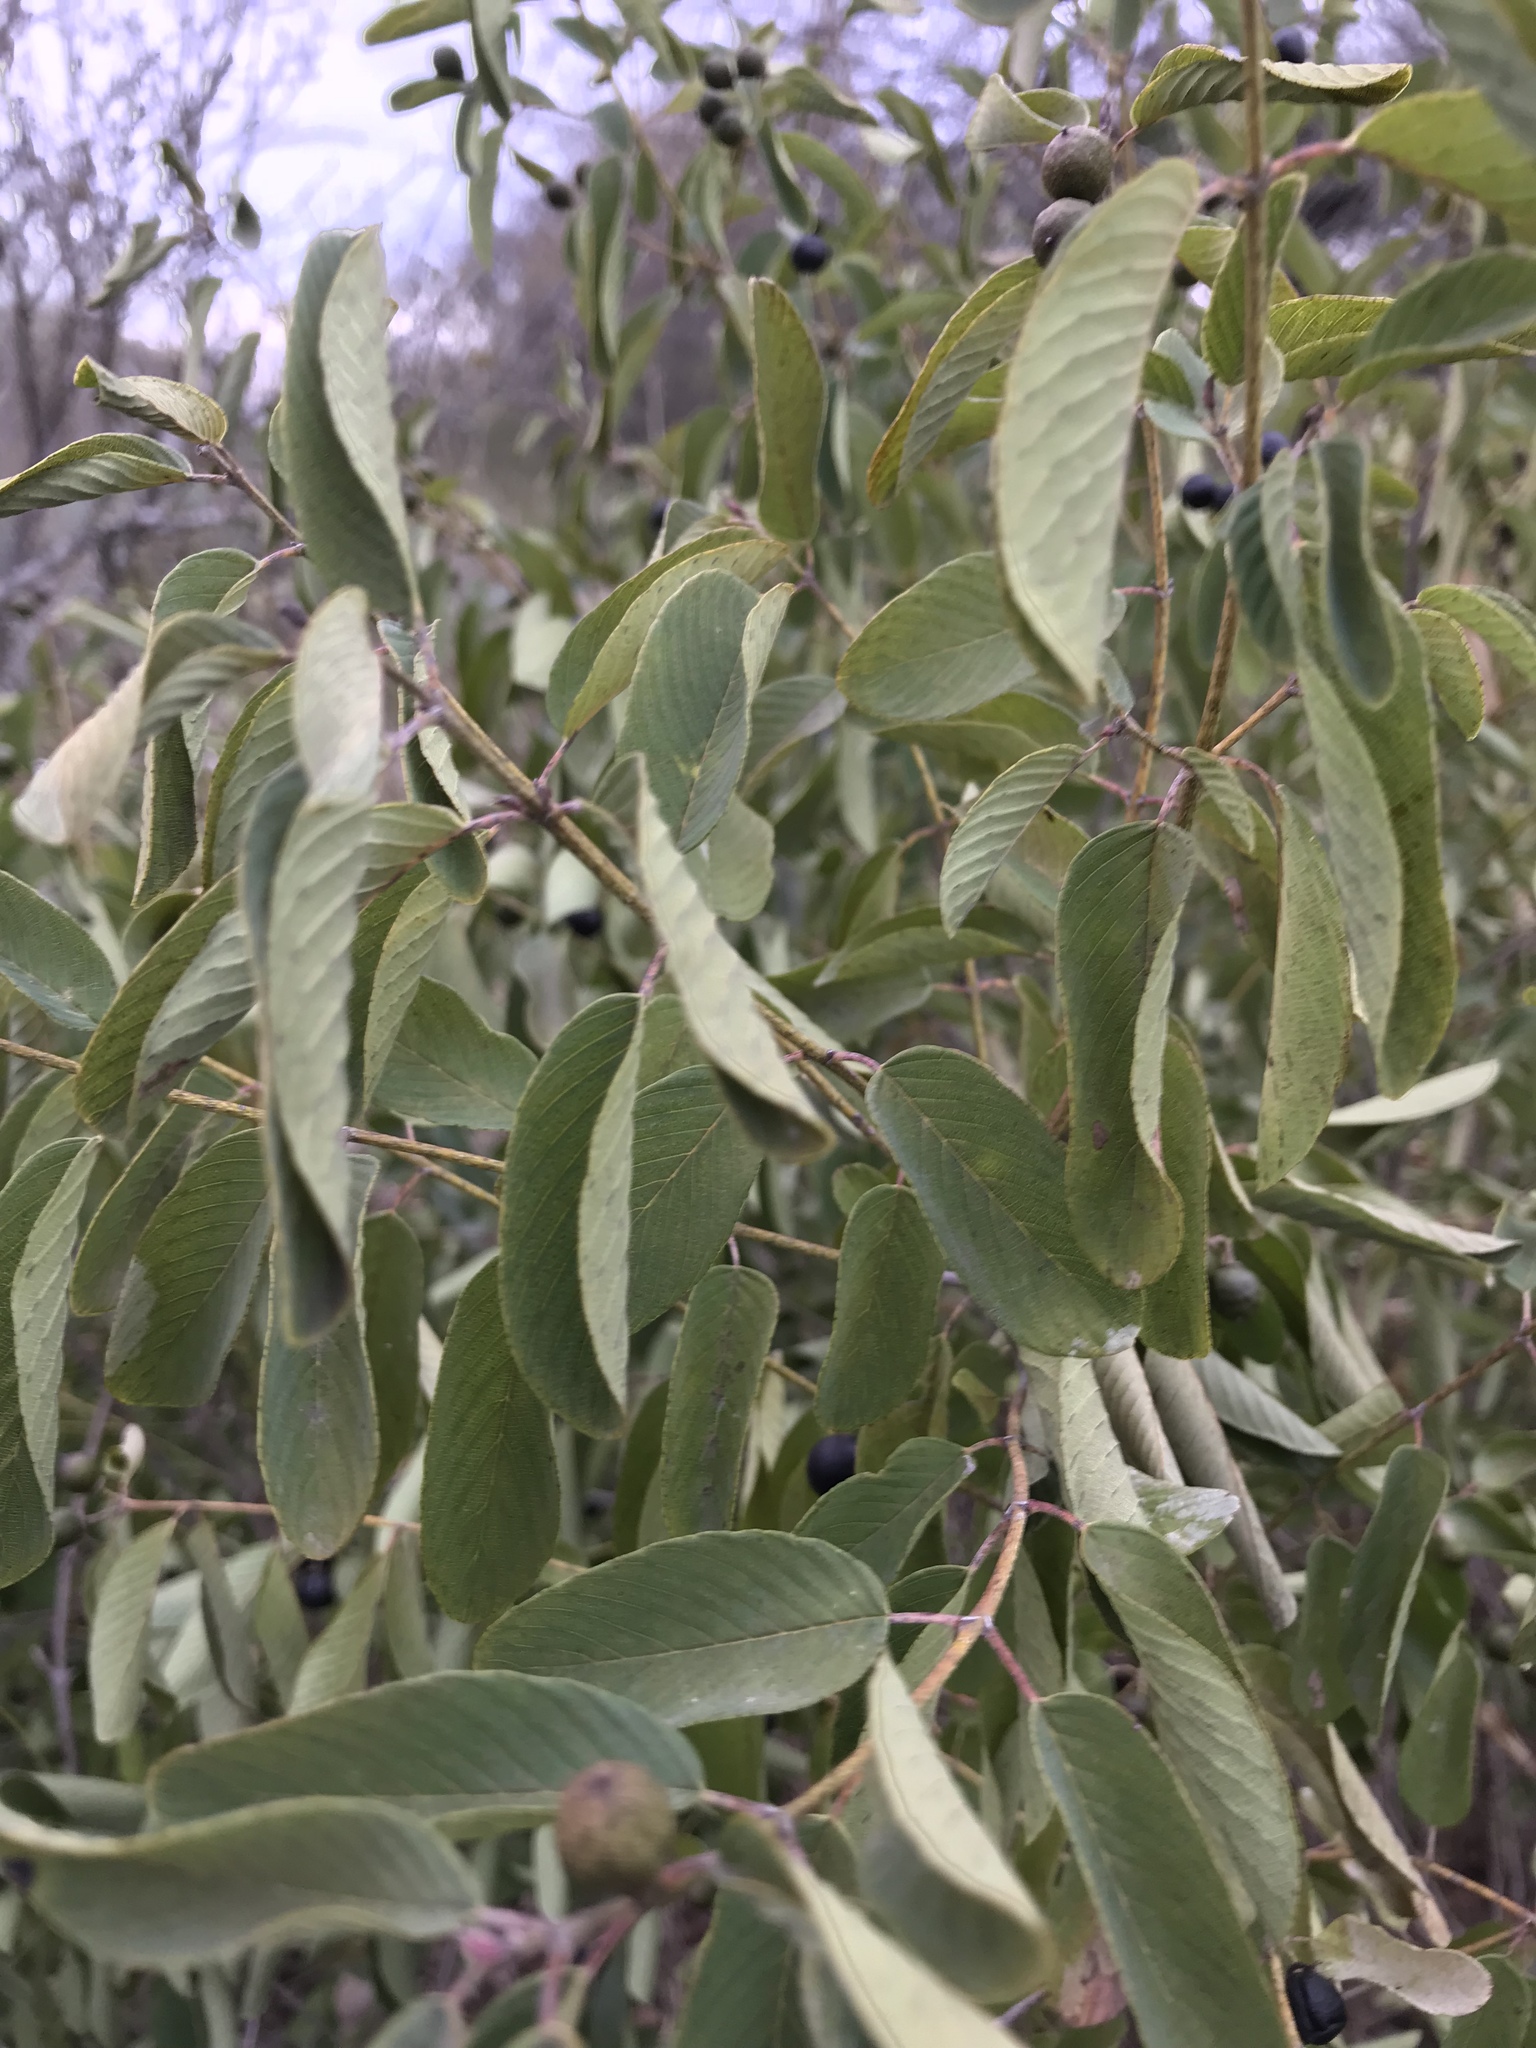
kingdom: Plantae
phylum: Tracheophyta
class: Magnoliopsida
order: Rosales
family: Rhamnaceae
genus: Karwinskia
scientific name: Karwinskia humboldtiana
